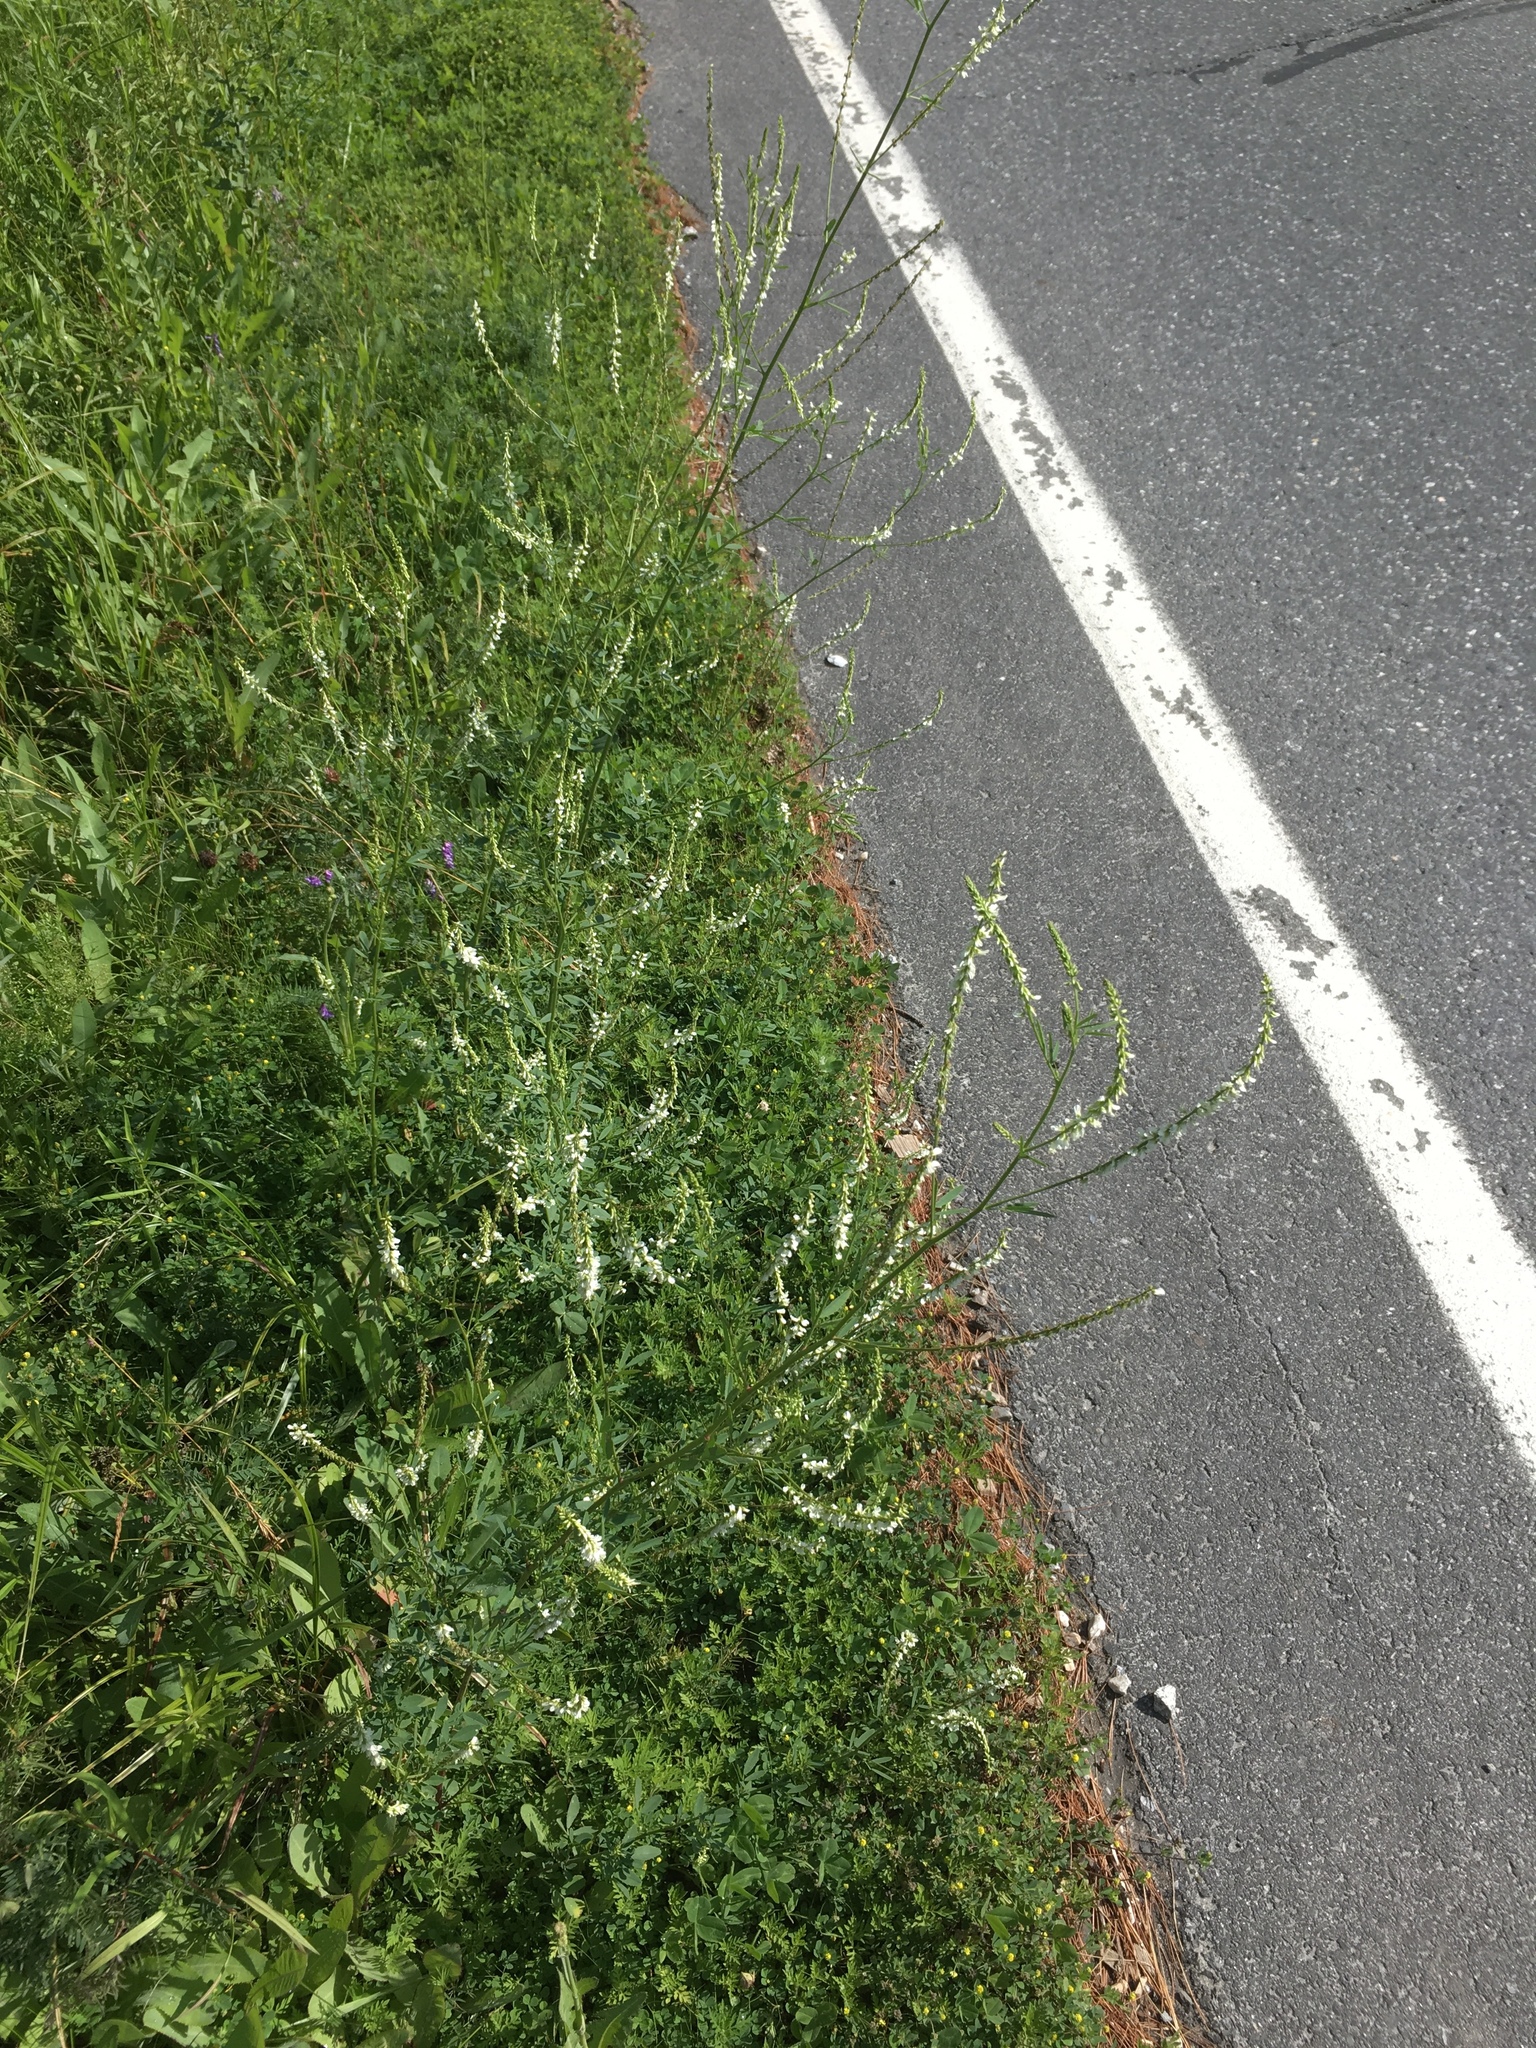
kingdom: Plantae
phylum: Tracheophyta
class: Magnoliopsida
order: Fabales
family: Fabaceae
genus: Melilotus
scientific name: Melilotus albus
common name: White melilot
